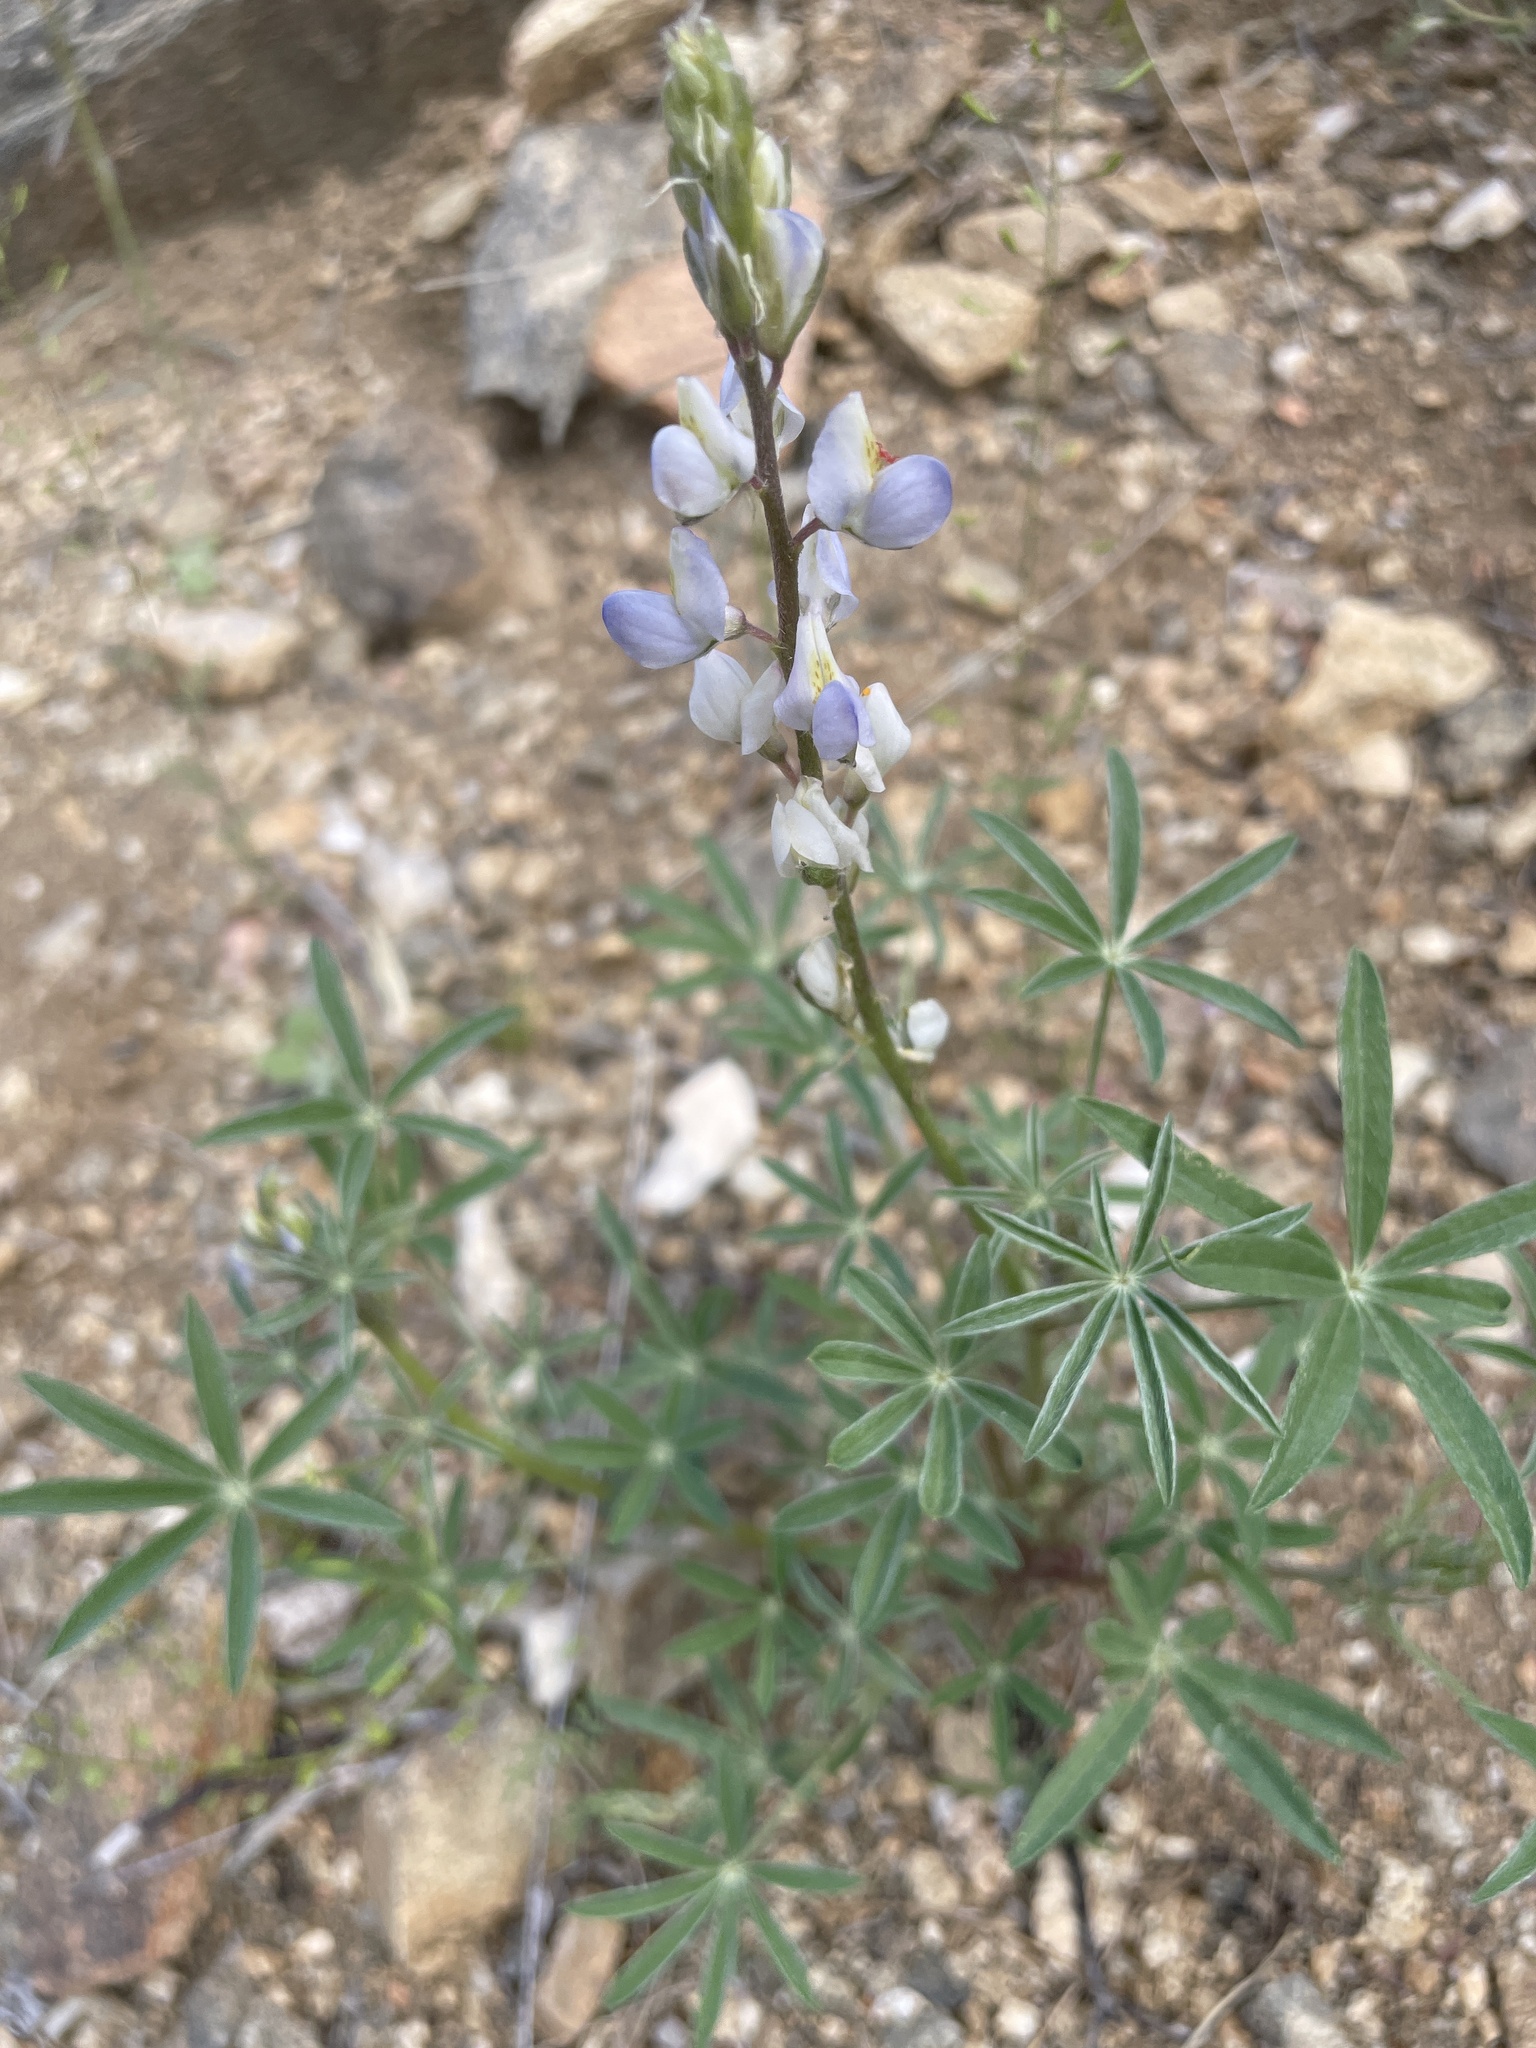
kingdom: Plantae
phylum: Tracheophyta
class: Magnoliopsida
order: Fabales
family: Fabaceae
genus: Lupinus
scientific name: Lupinus sparsiflorus
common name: Coulter's lupine
